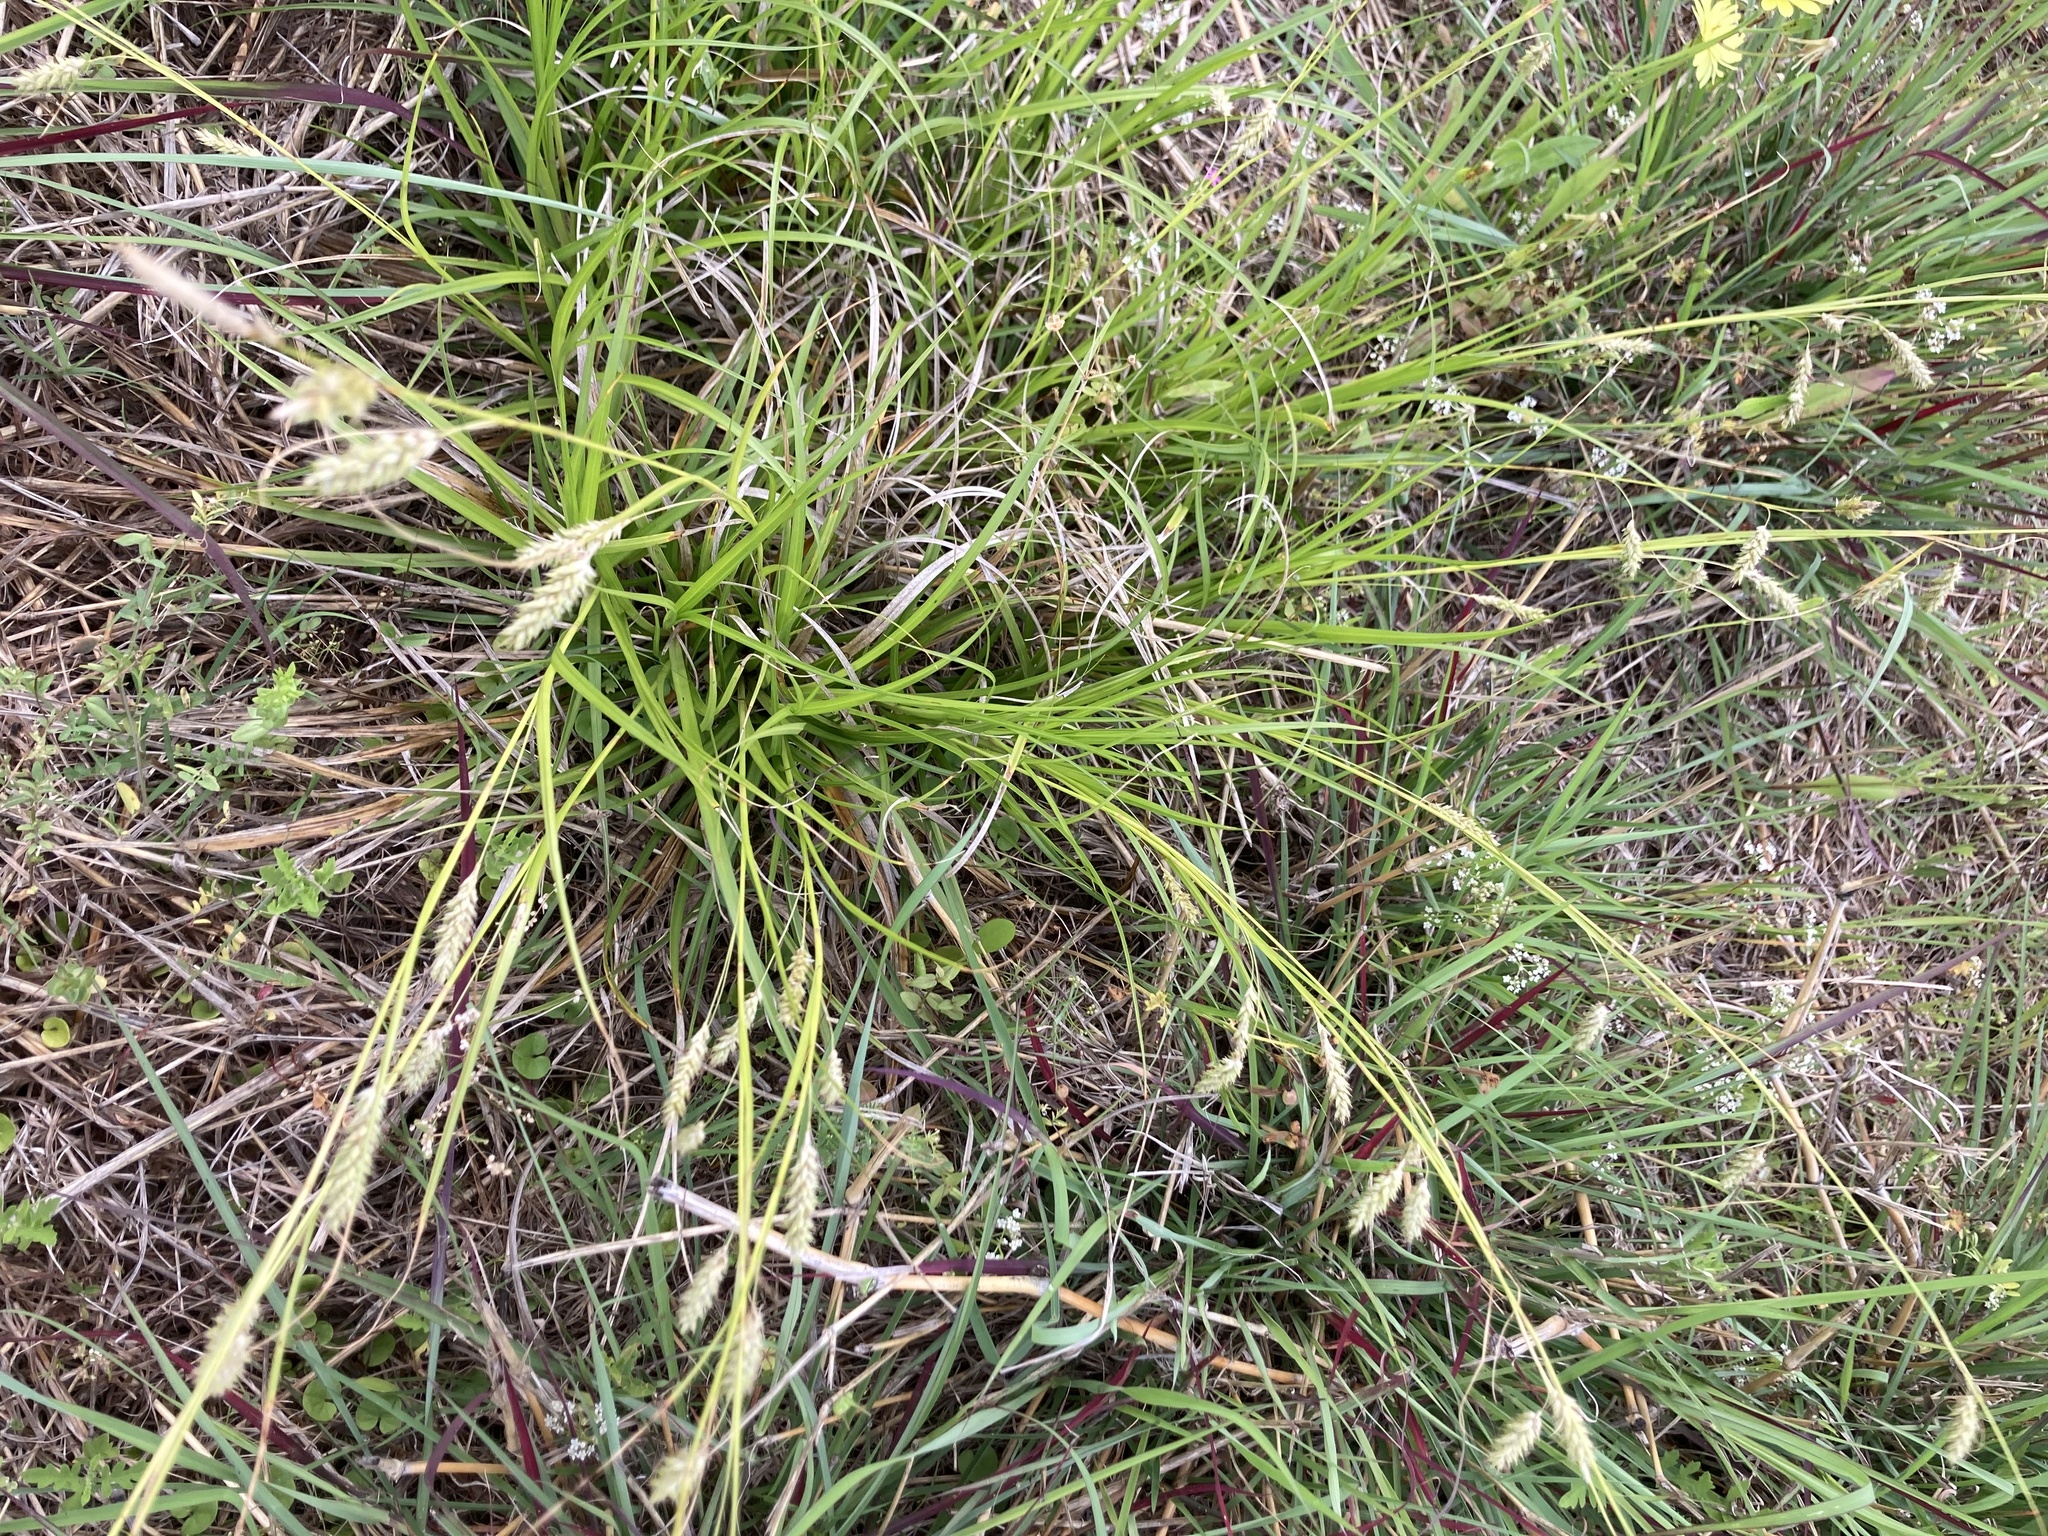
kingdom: Plantae
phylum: Tracheophyta
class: Liliopsida
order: Poales
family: Cyperaceae
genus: Carex
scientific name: Carex cherokeensis
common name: Cherokee sedge
